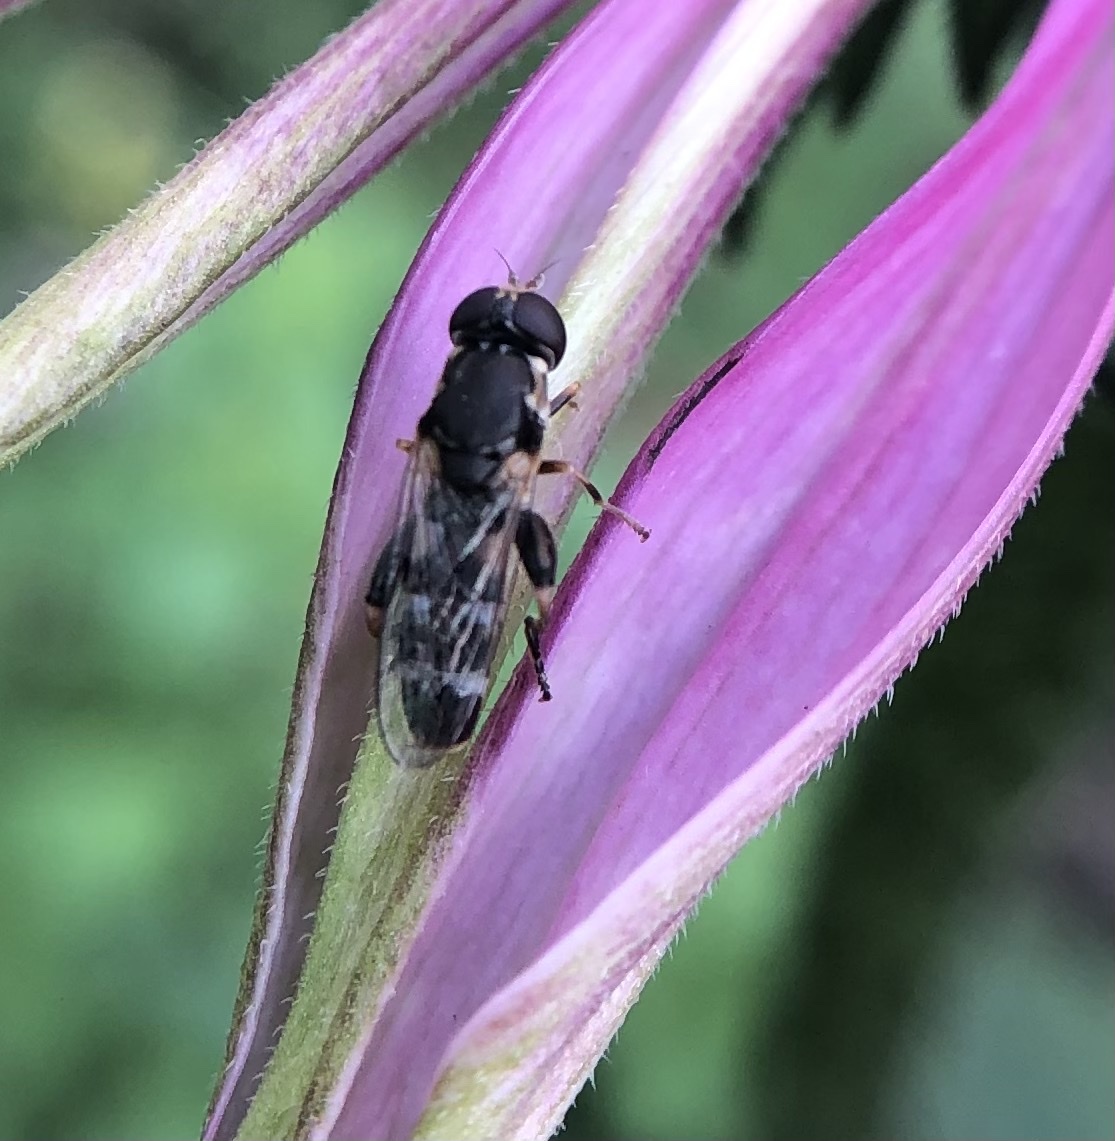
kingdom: Animalia
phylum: Arthropoda
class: Insecta
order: Diptera
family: Syrphidae
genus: Syritta
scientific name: Syritta pipiens
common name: Hover fly
